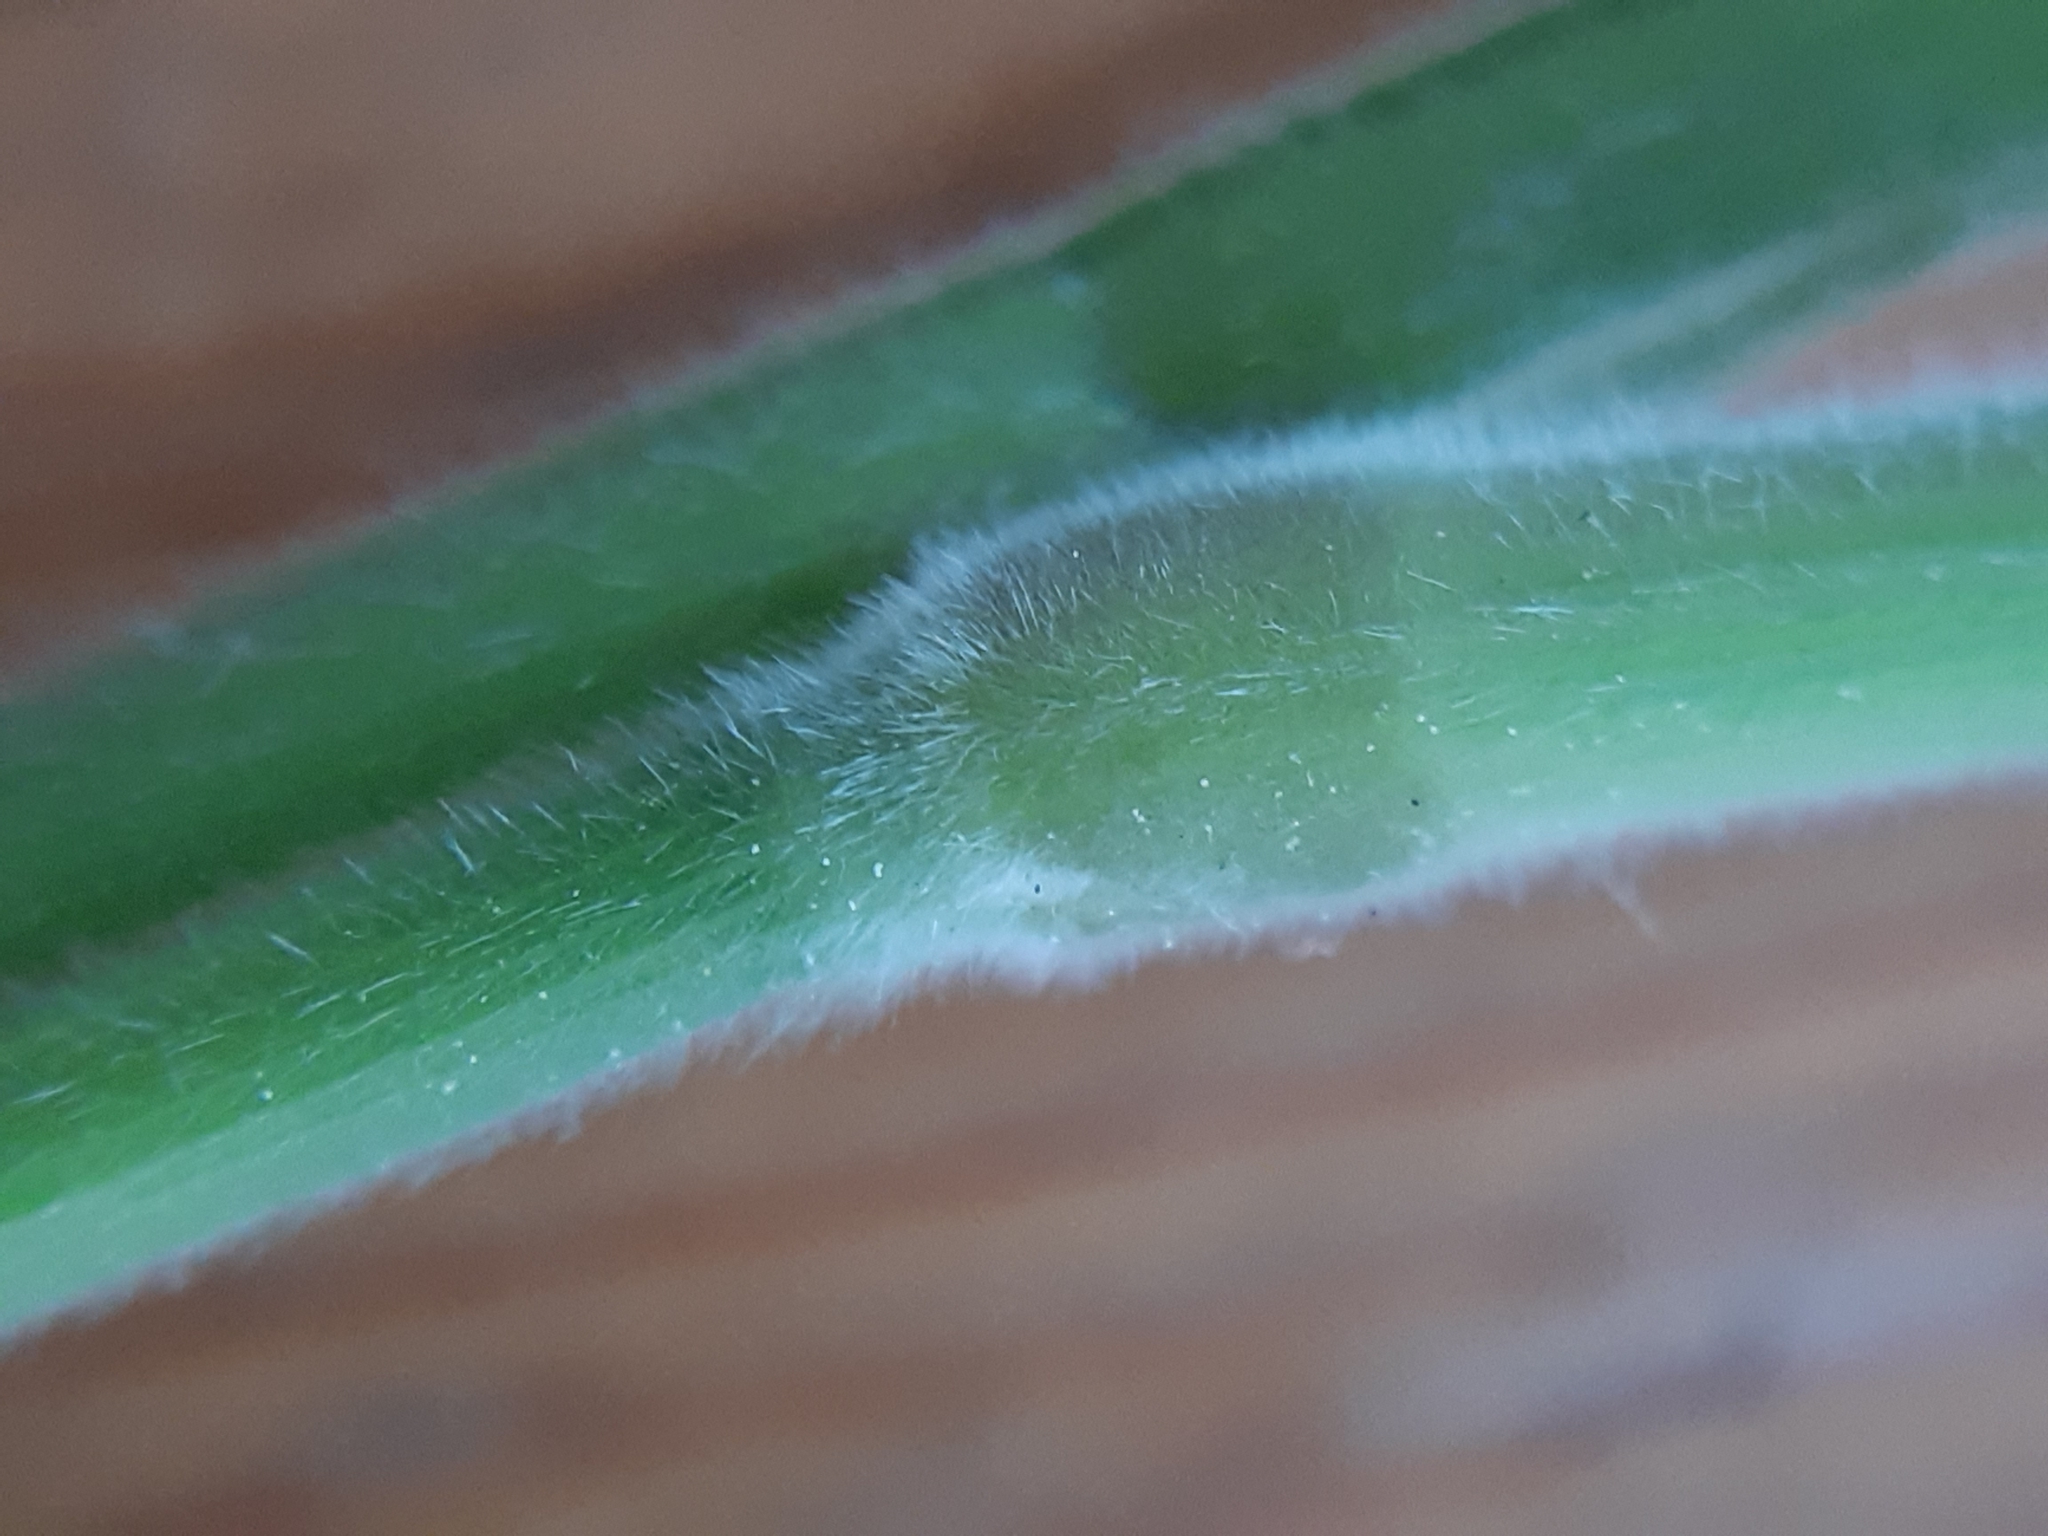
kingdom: Plantae
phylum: Tracheophyta
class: Liliopsida
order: Poales
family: Poaceae
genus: Holcus
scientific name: Holcus lanatus
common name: Yorkshire-fog
